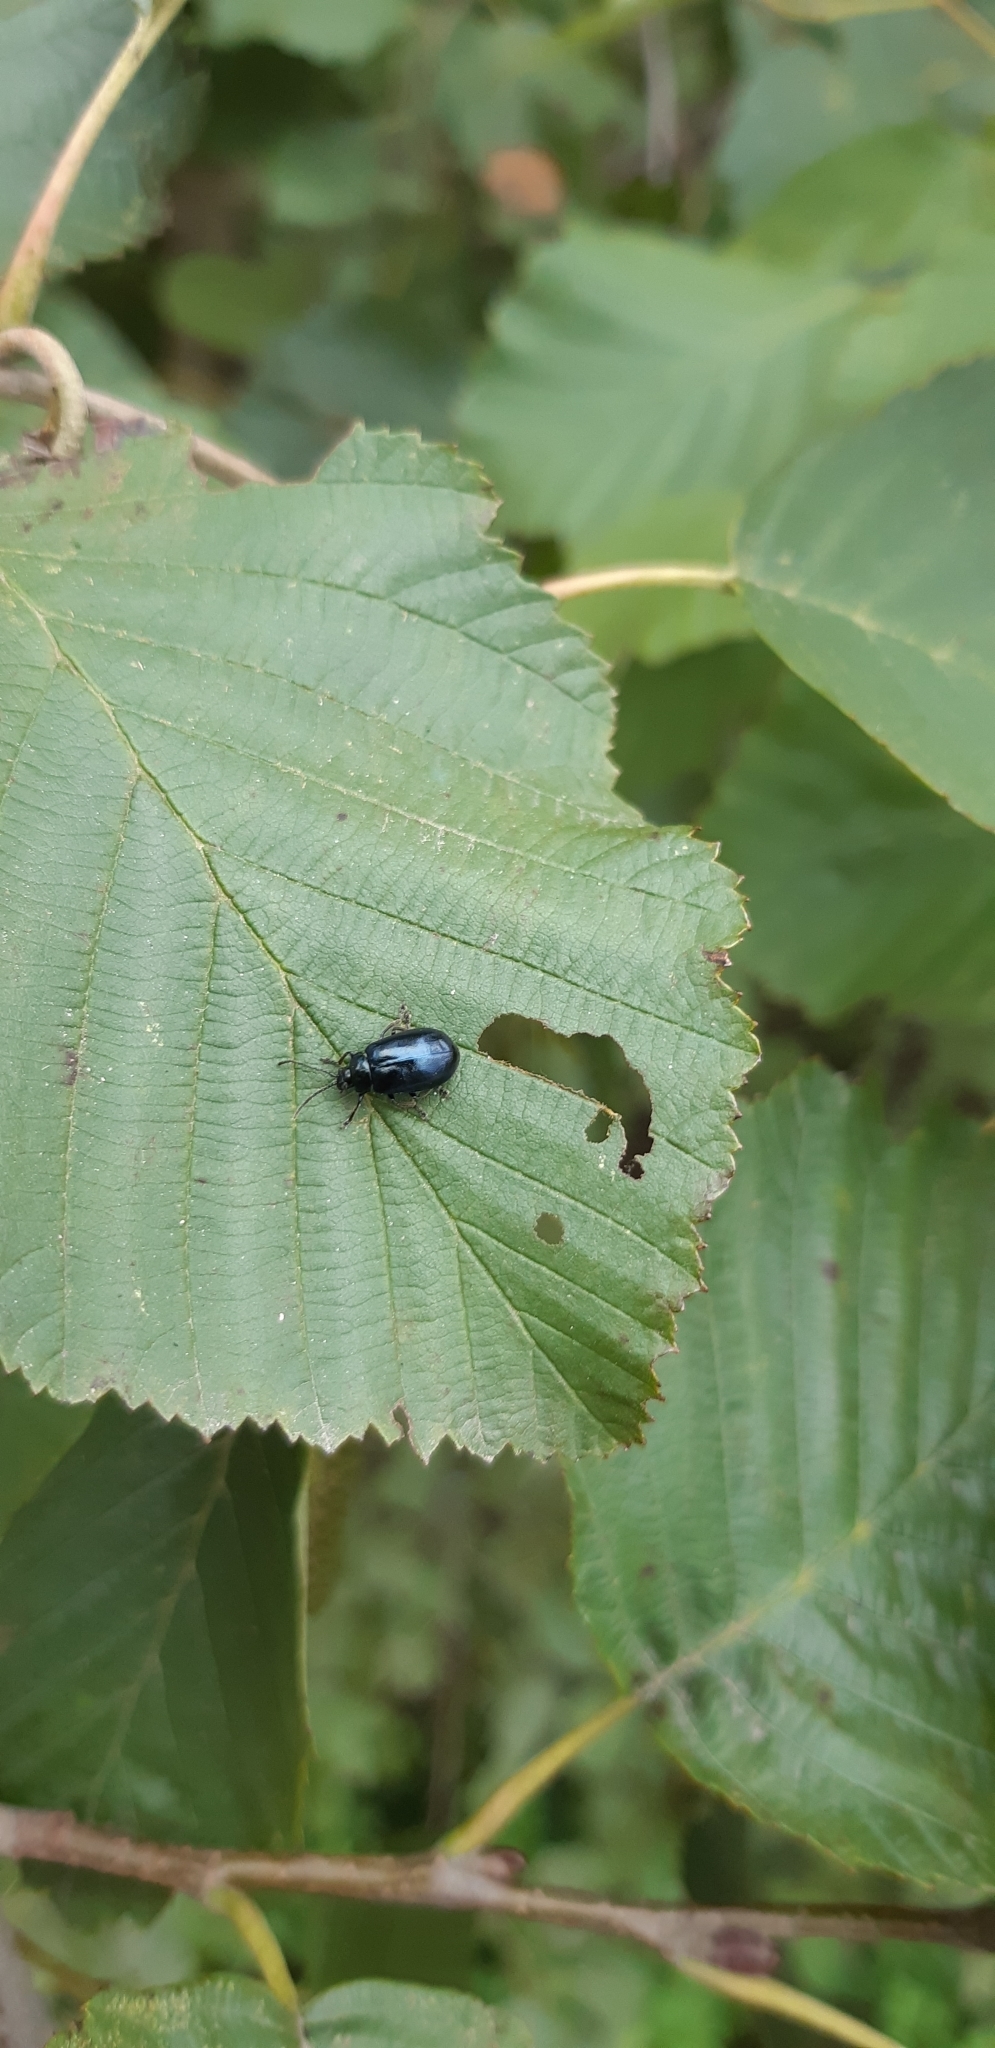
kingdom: Animalia
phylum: Arthropoda
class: Insecta
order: Coleoptera
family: Chrysomelidae
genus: Agelastica
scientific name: Agelastica alni
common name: Alder leaf beetle
